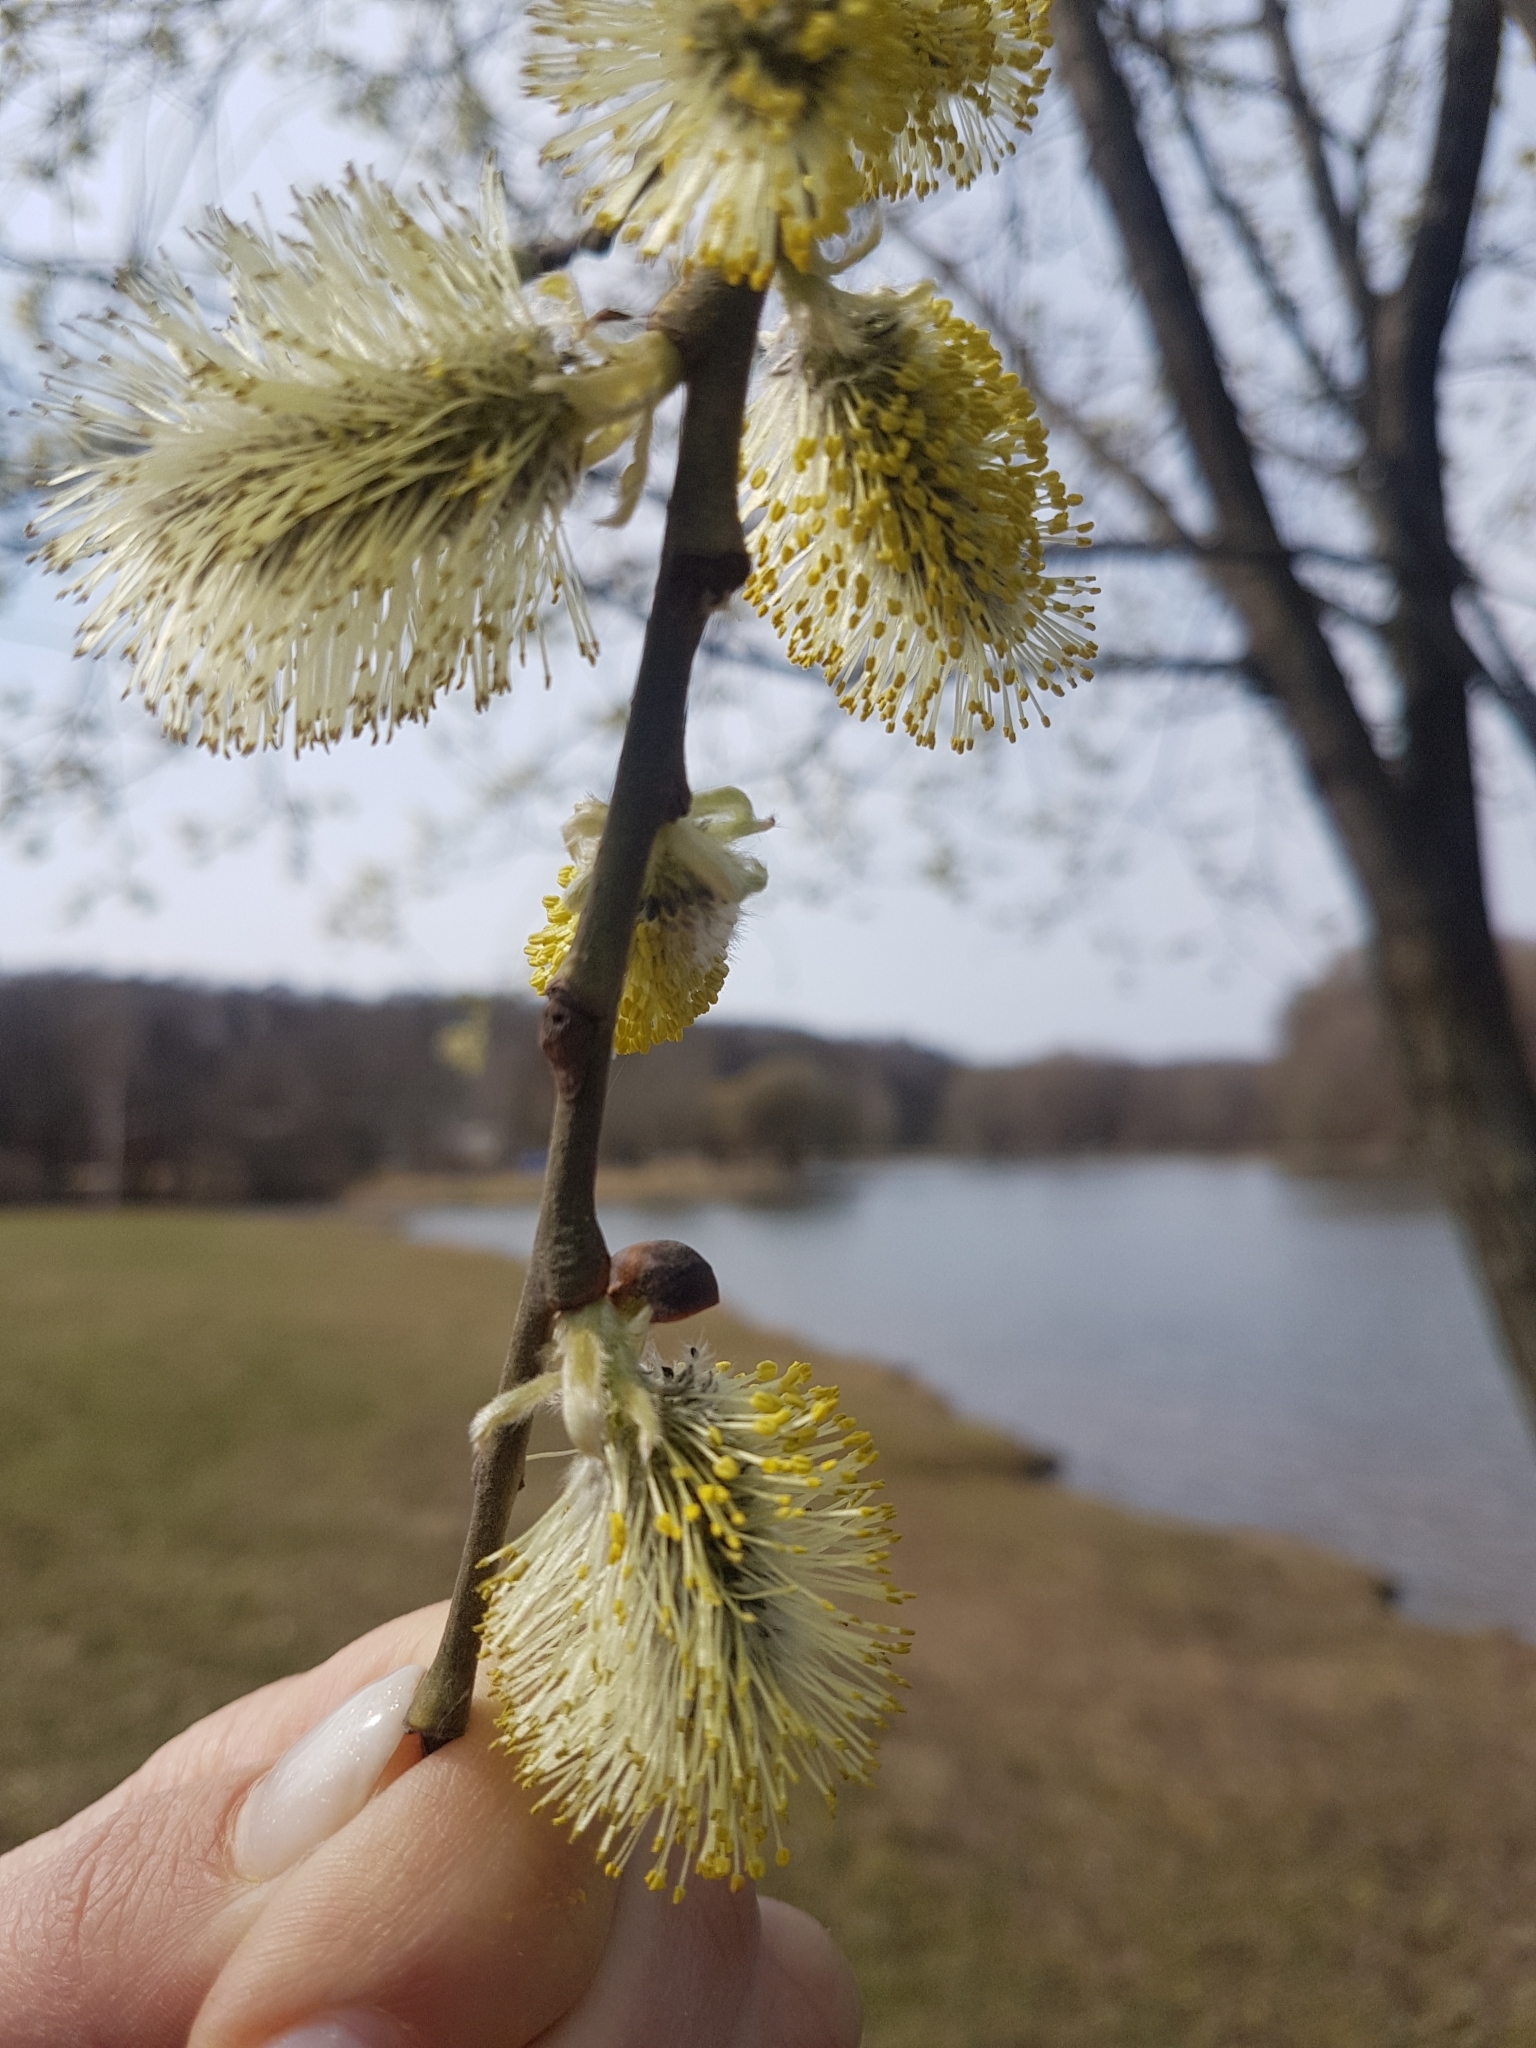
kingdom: Plantae
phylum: Tracheophyta
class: Magnoliopsida
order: Malpighiales
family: Salicaceae
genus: Salix
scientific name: Salix caprea
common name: Goat willow
